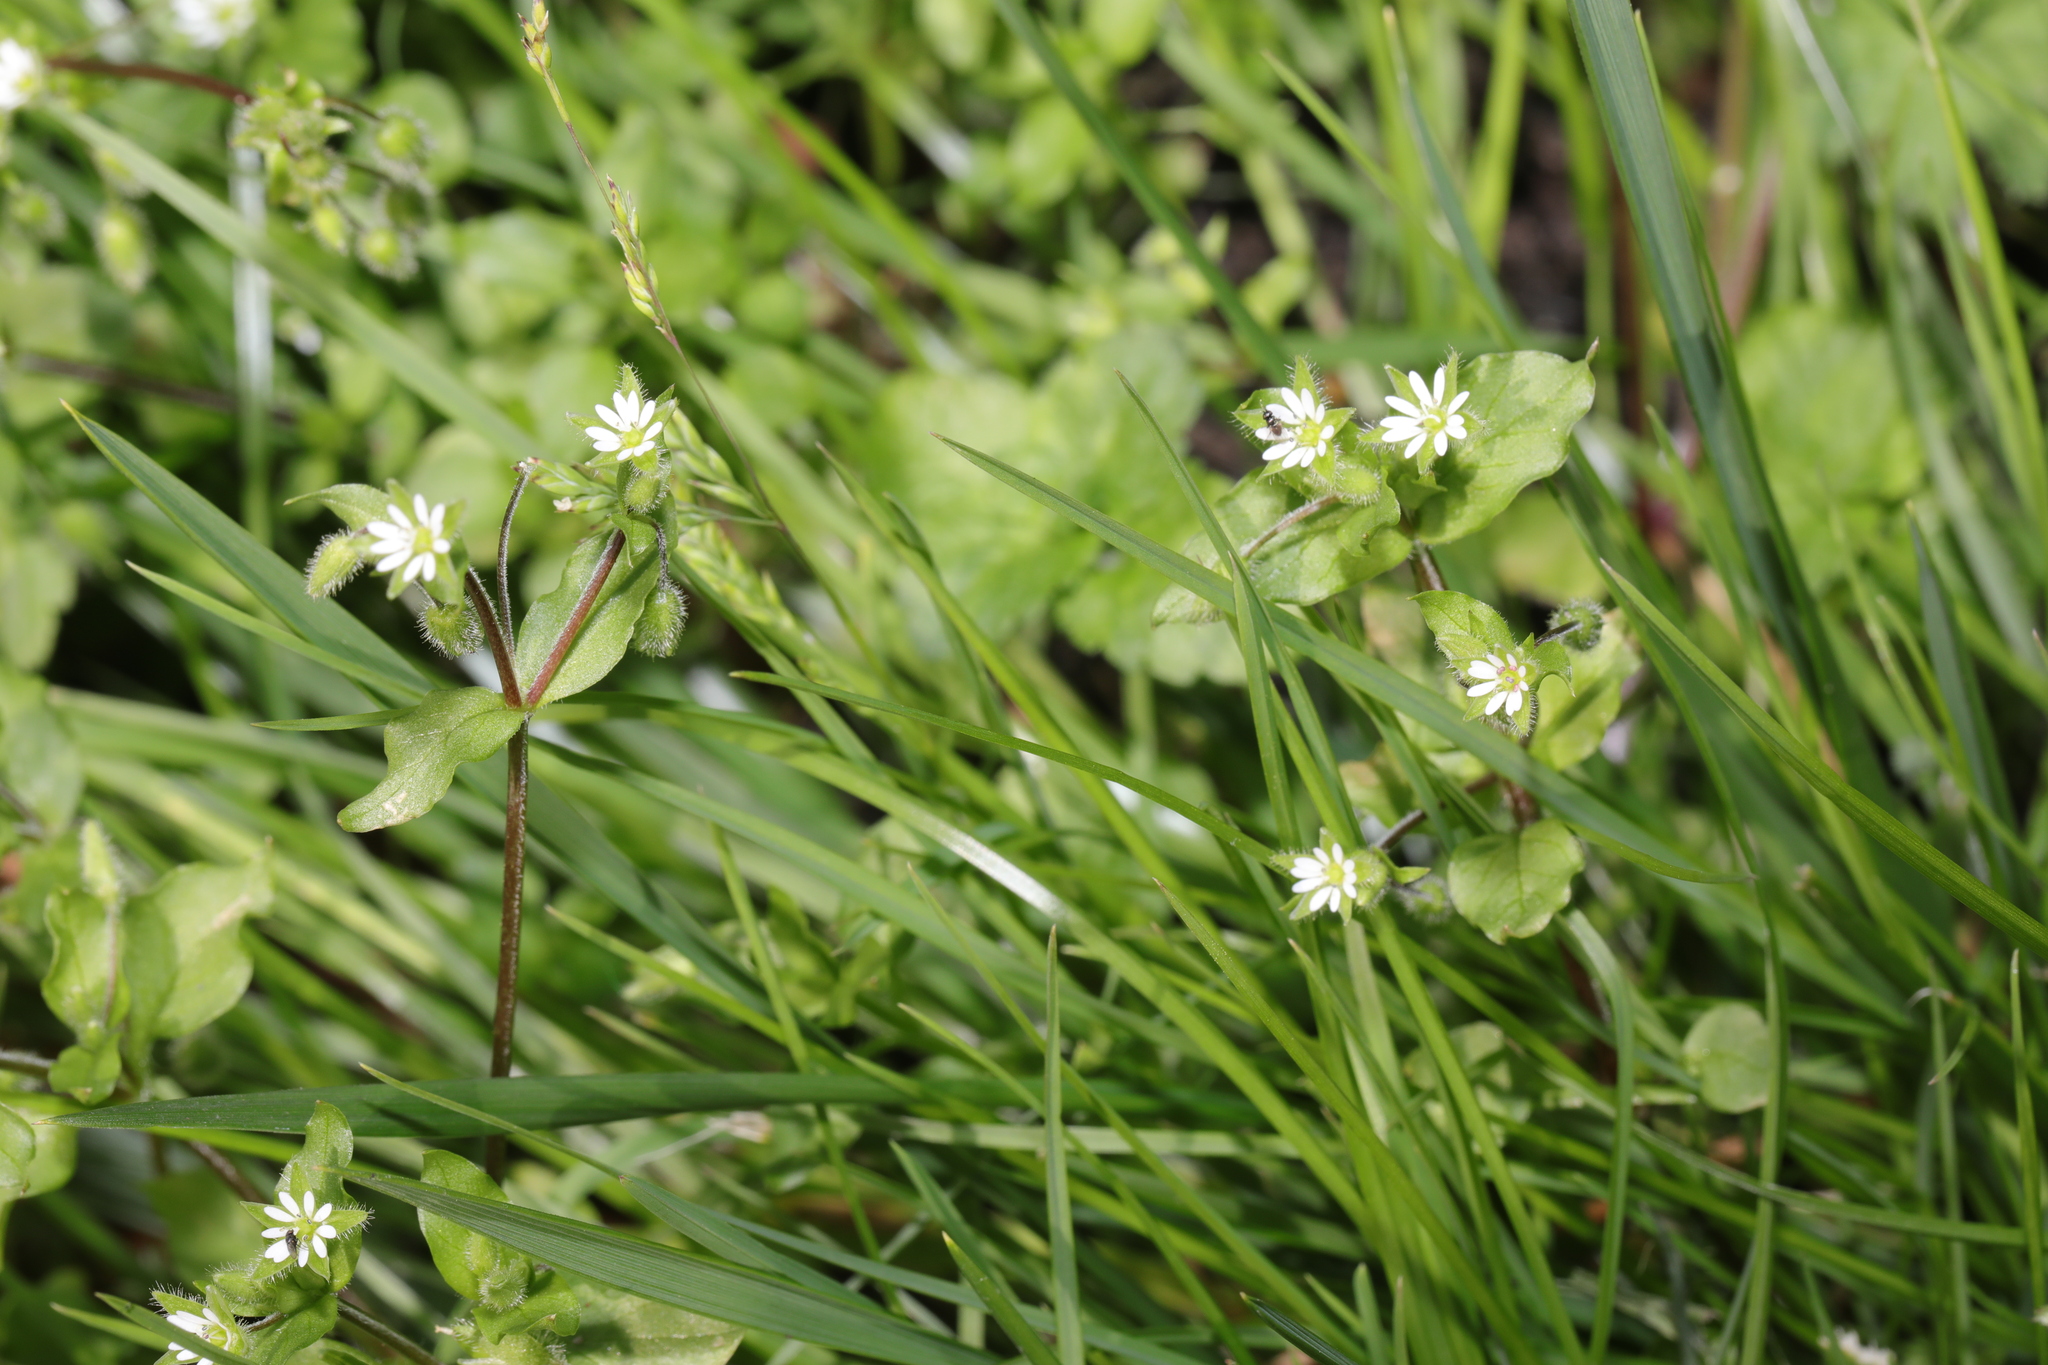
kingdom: Plantae
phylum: Tracheophyta
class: Magnoliopsida
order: Caryophyllales
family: Caryophyllaceae
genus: Stellaria
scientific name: Stellaria media
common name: Common chickweed
